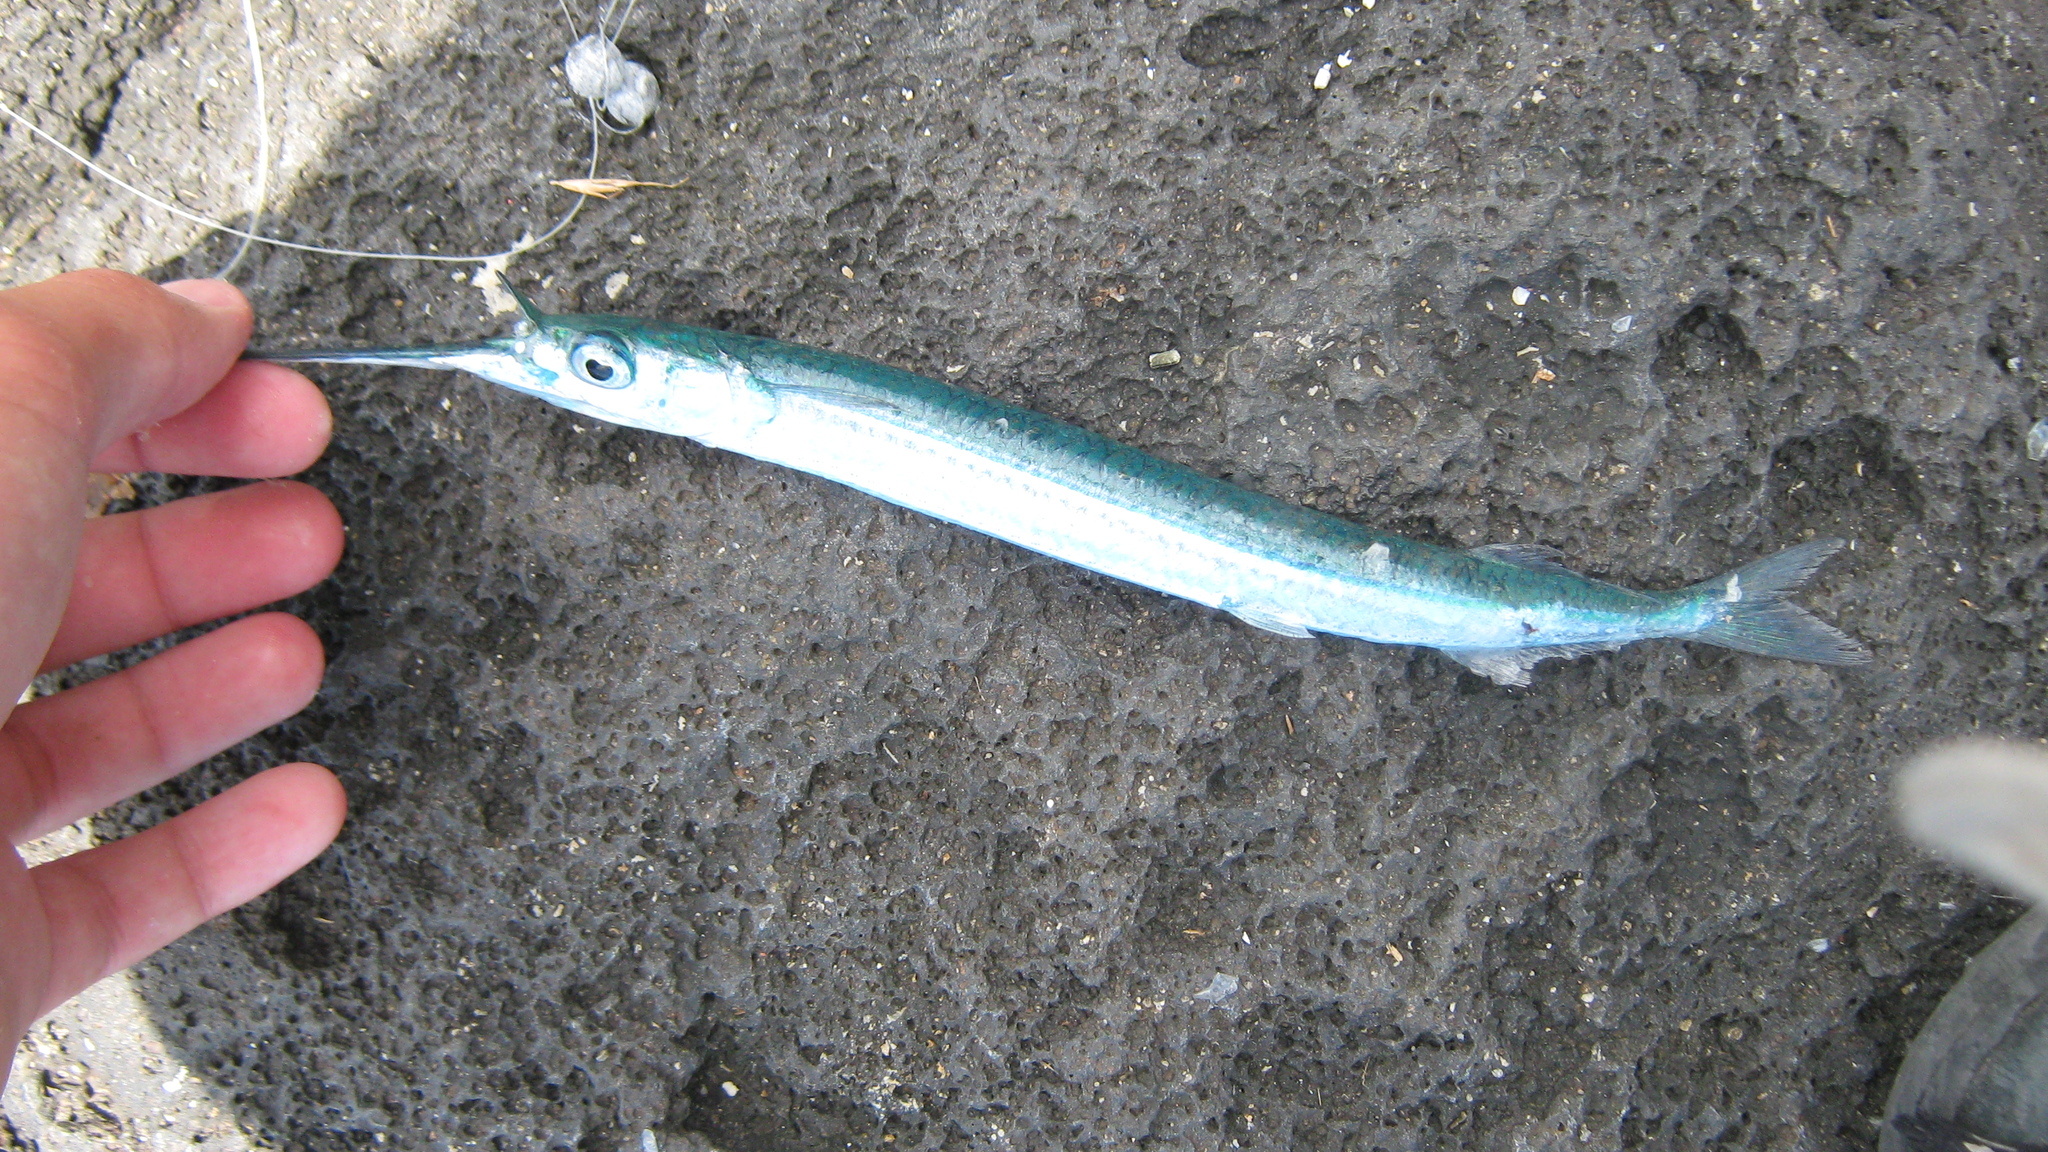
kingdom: Animalia
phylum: Chordata
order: Beloniformes
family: Hemiramphidae
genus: Hyporhamphus
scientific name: Hyporhamphus acutus
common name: Acute halfbeak
